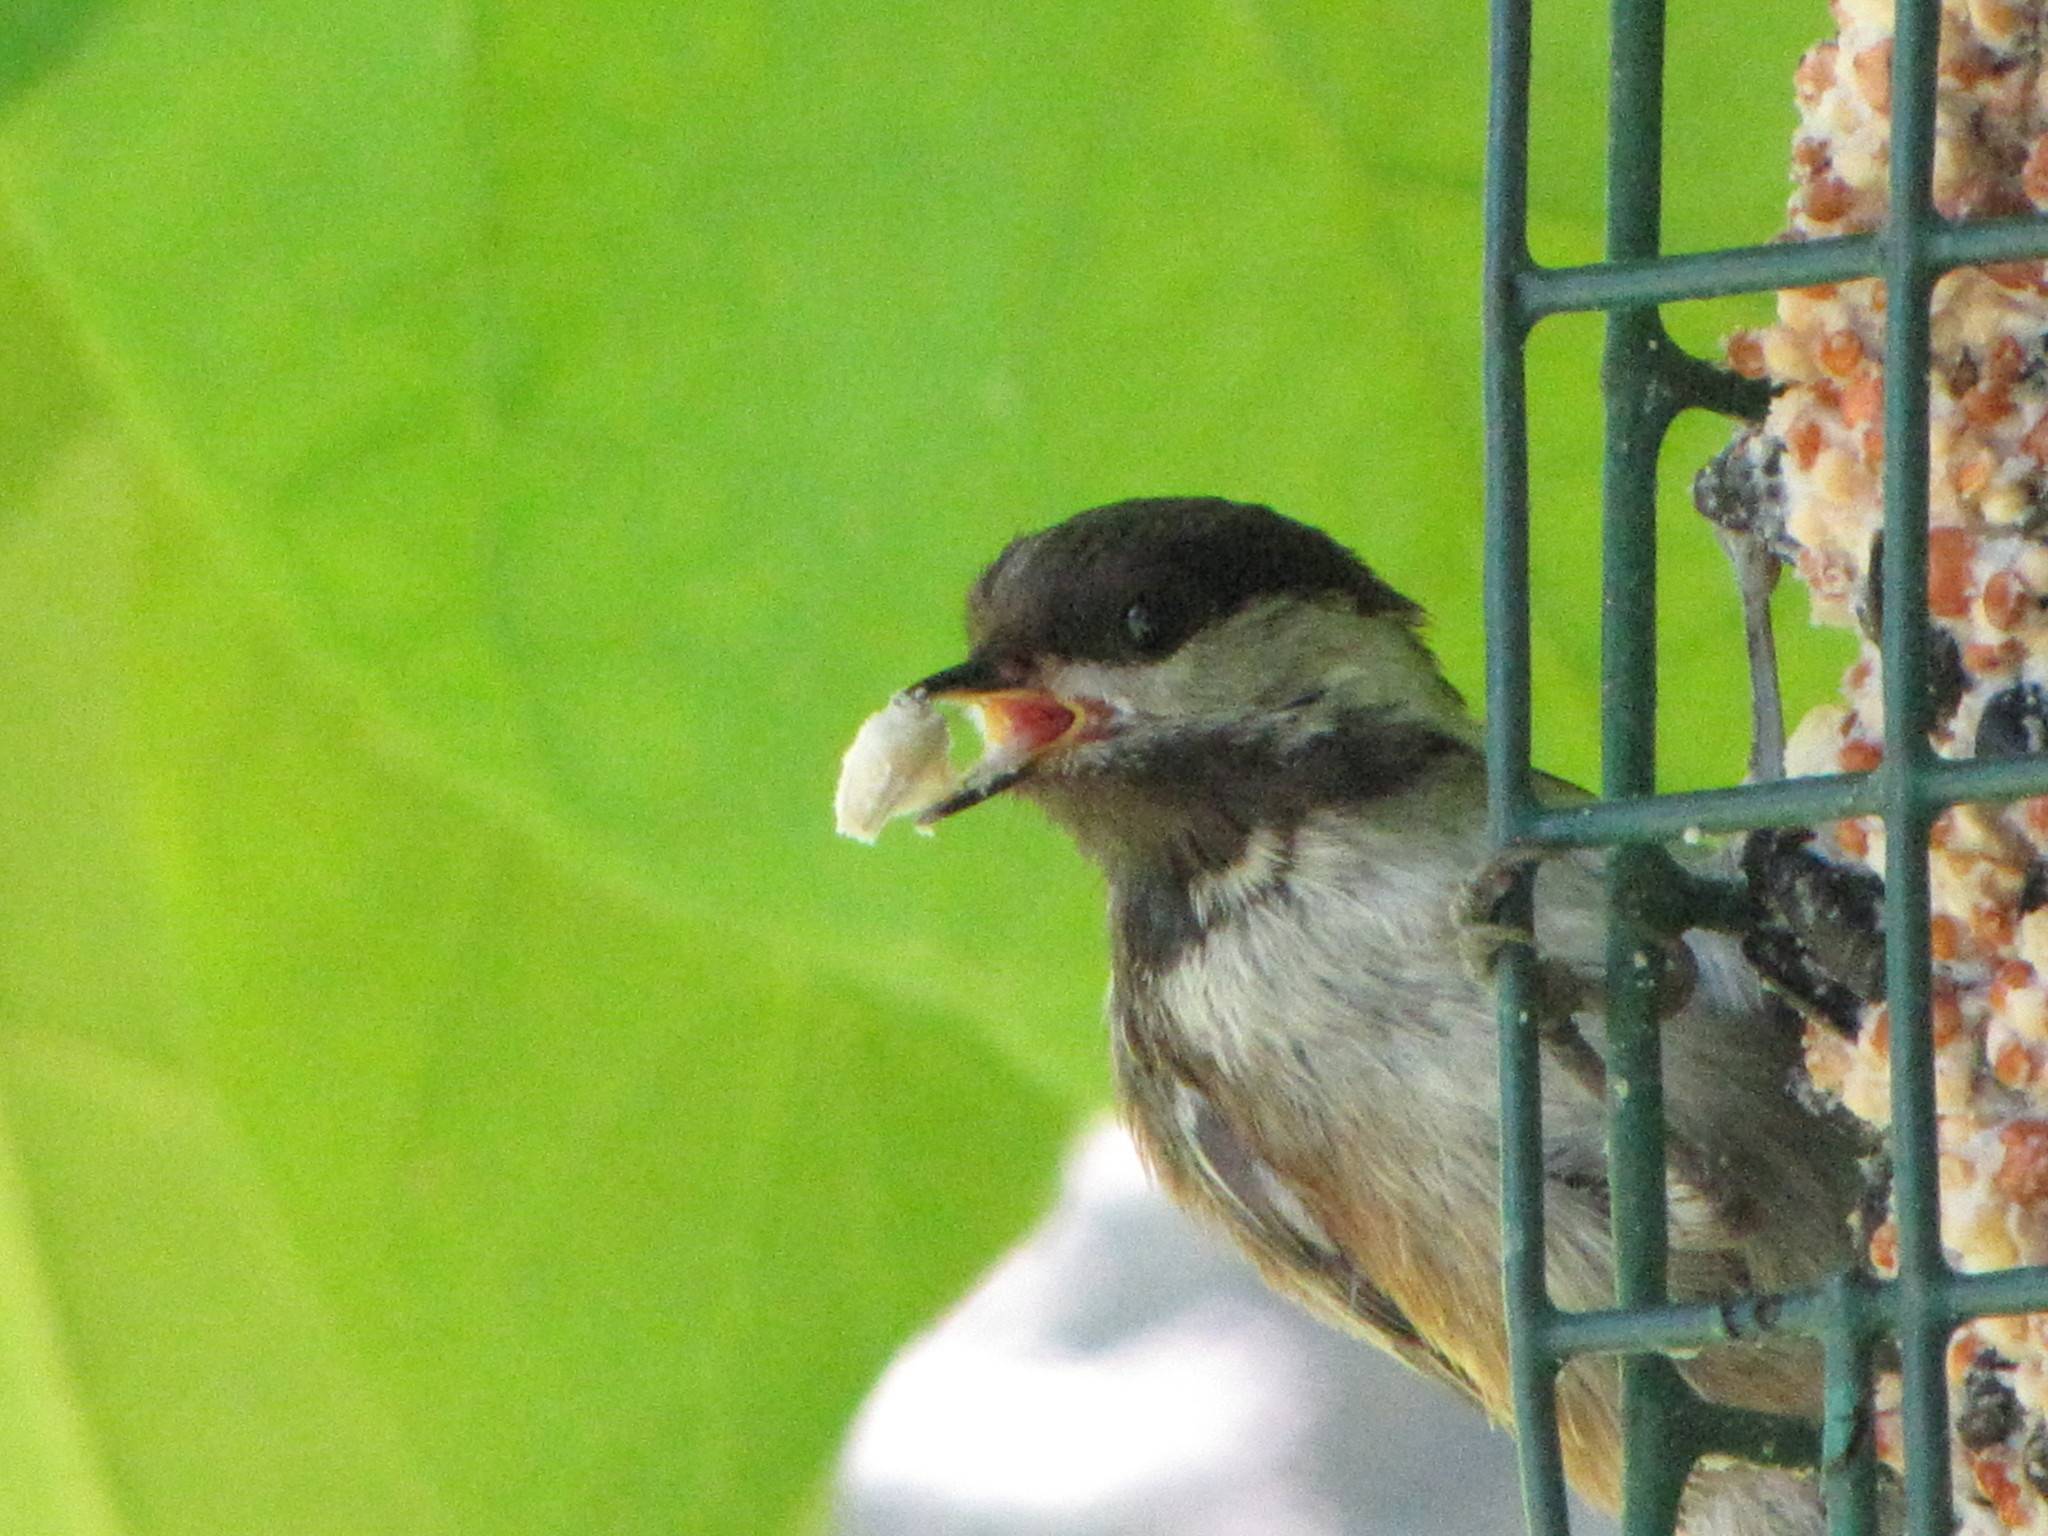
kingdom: Animalia
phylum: Chordata
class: Aves
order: Passeriformes
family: Paridae
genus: Poecile
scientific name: Poecile rufescens
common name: Chestnut-backed chickadee
